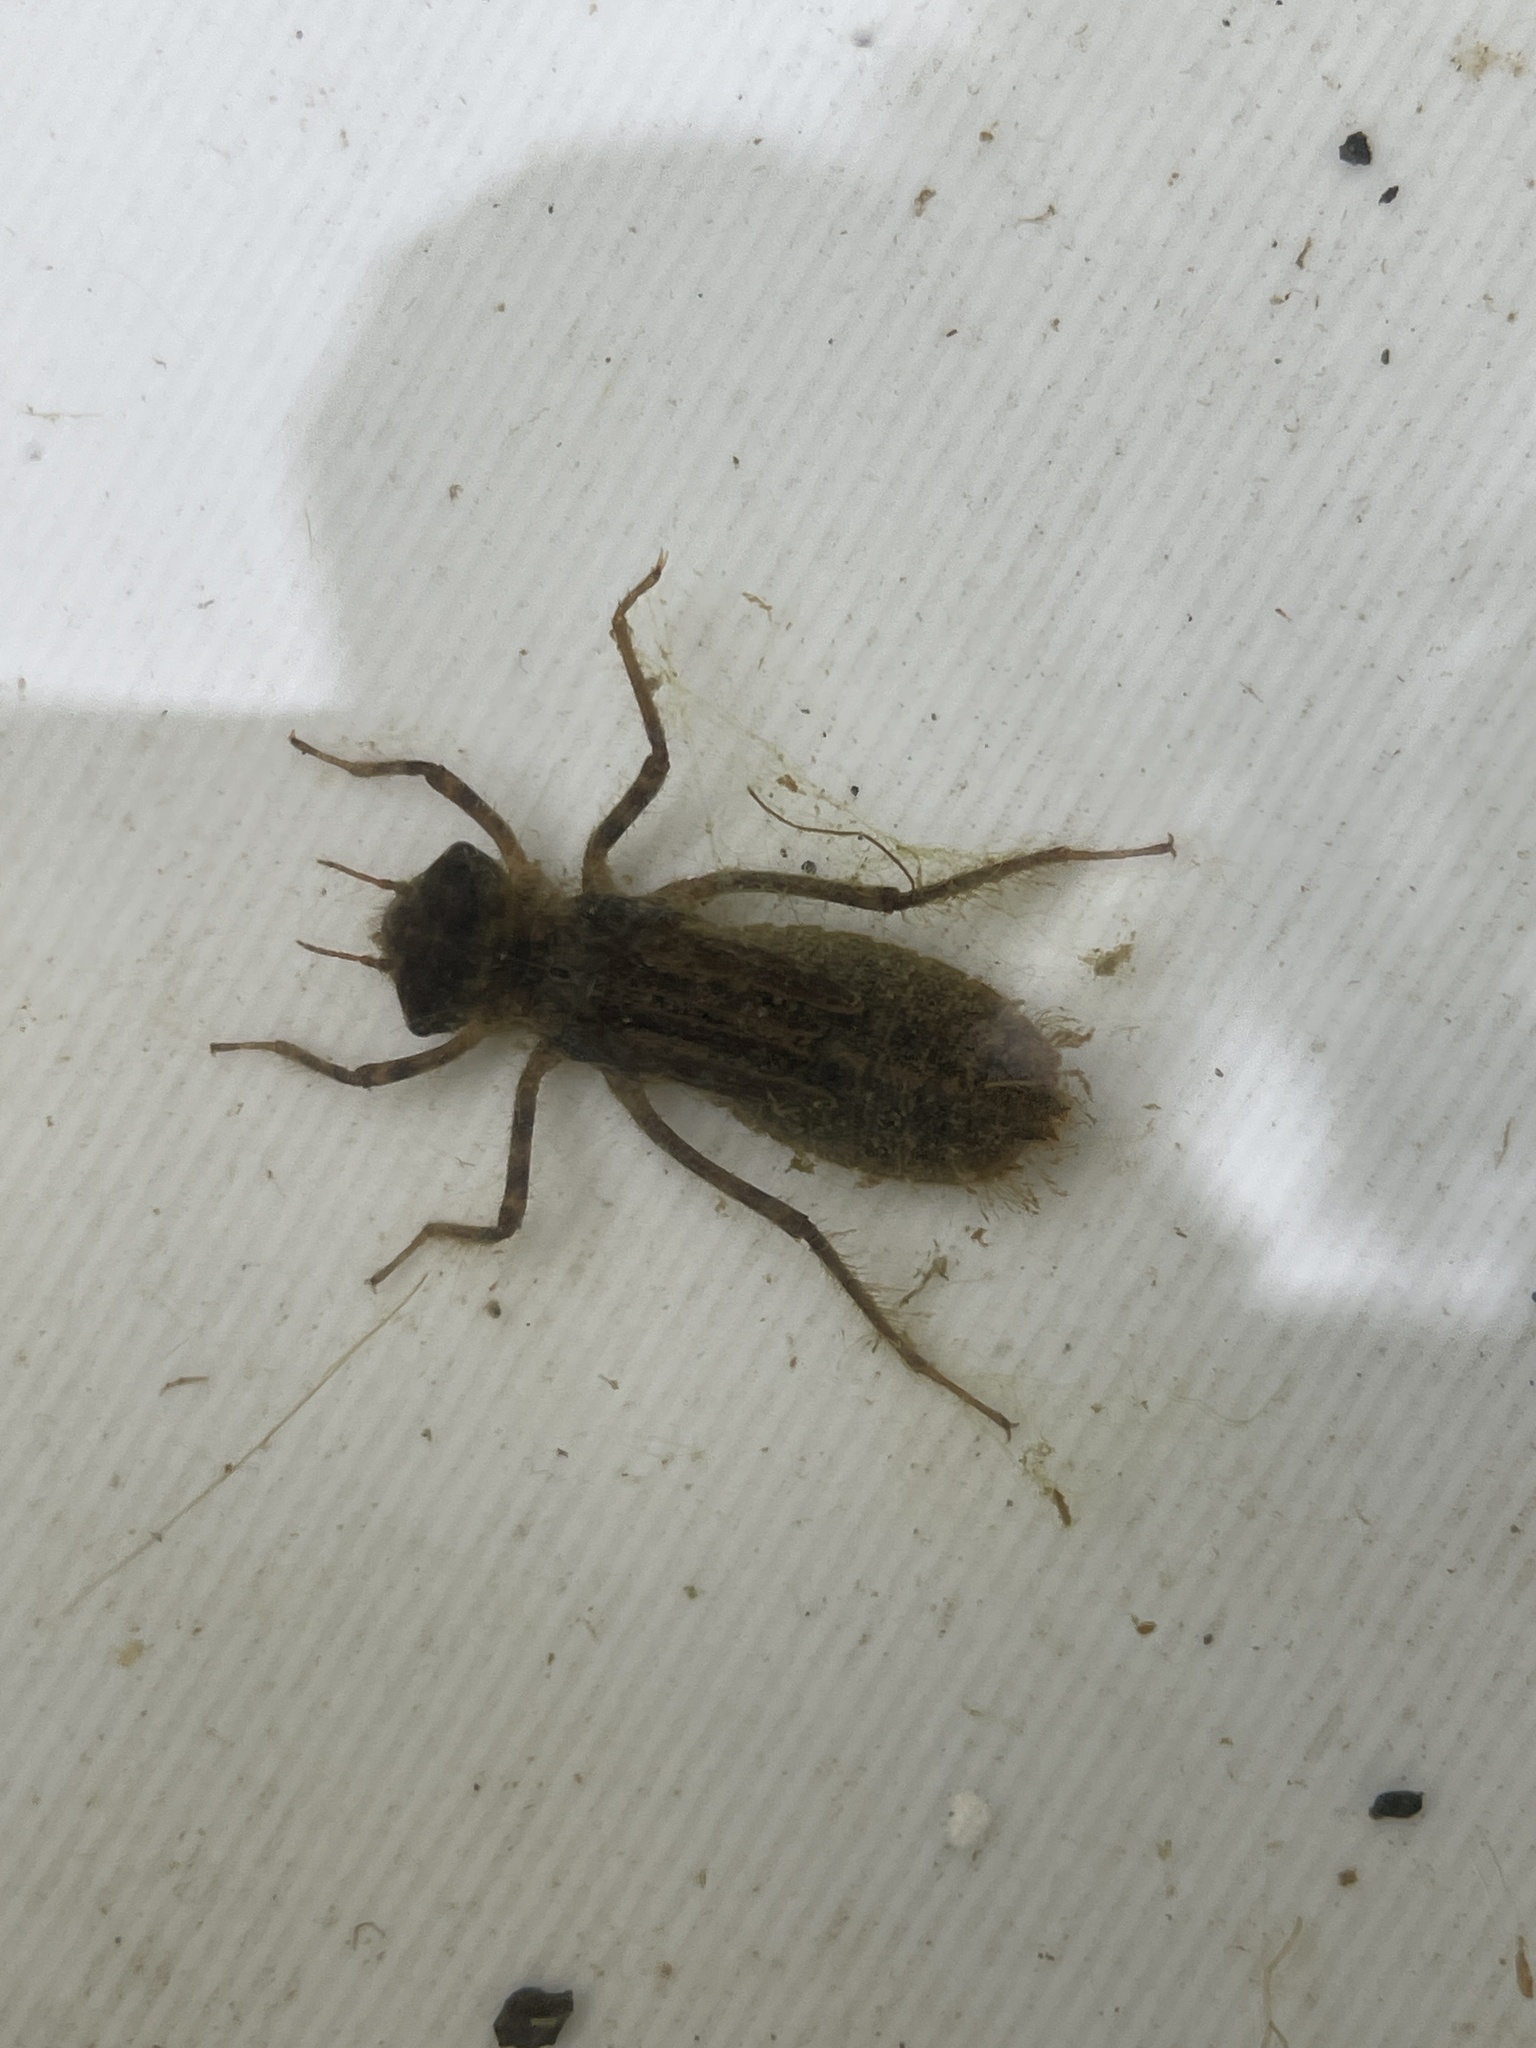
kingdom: Animalia
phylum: Arthropoda
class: Insecta
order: Odonata
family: Corduliidae
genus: Procordulia
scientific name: Procordulia smithii
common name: Ranger dragonfly
